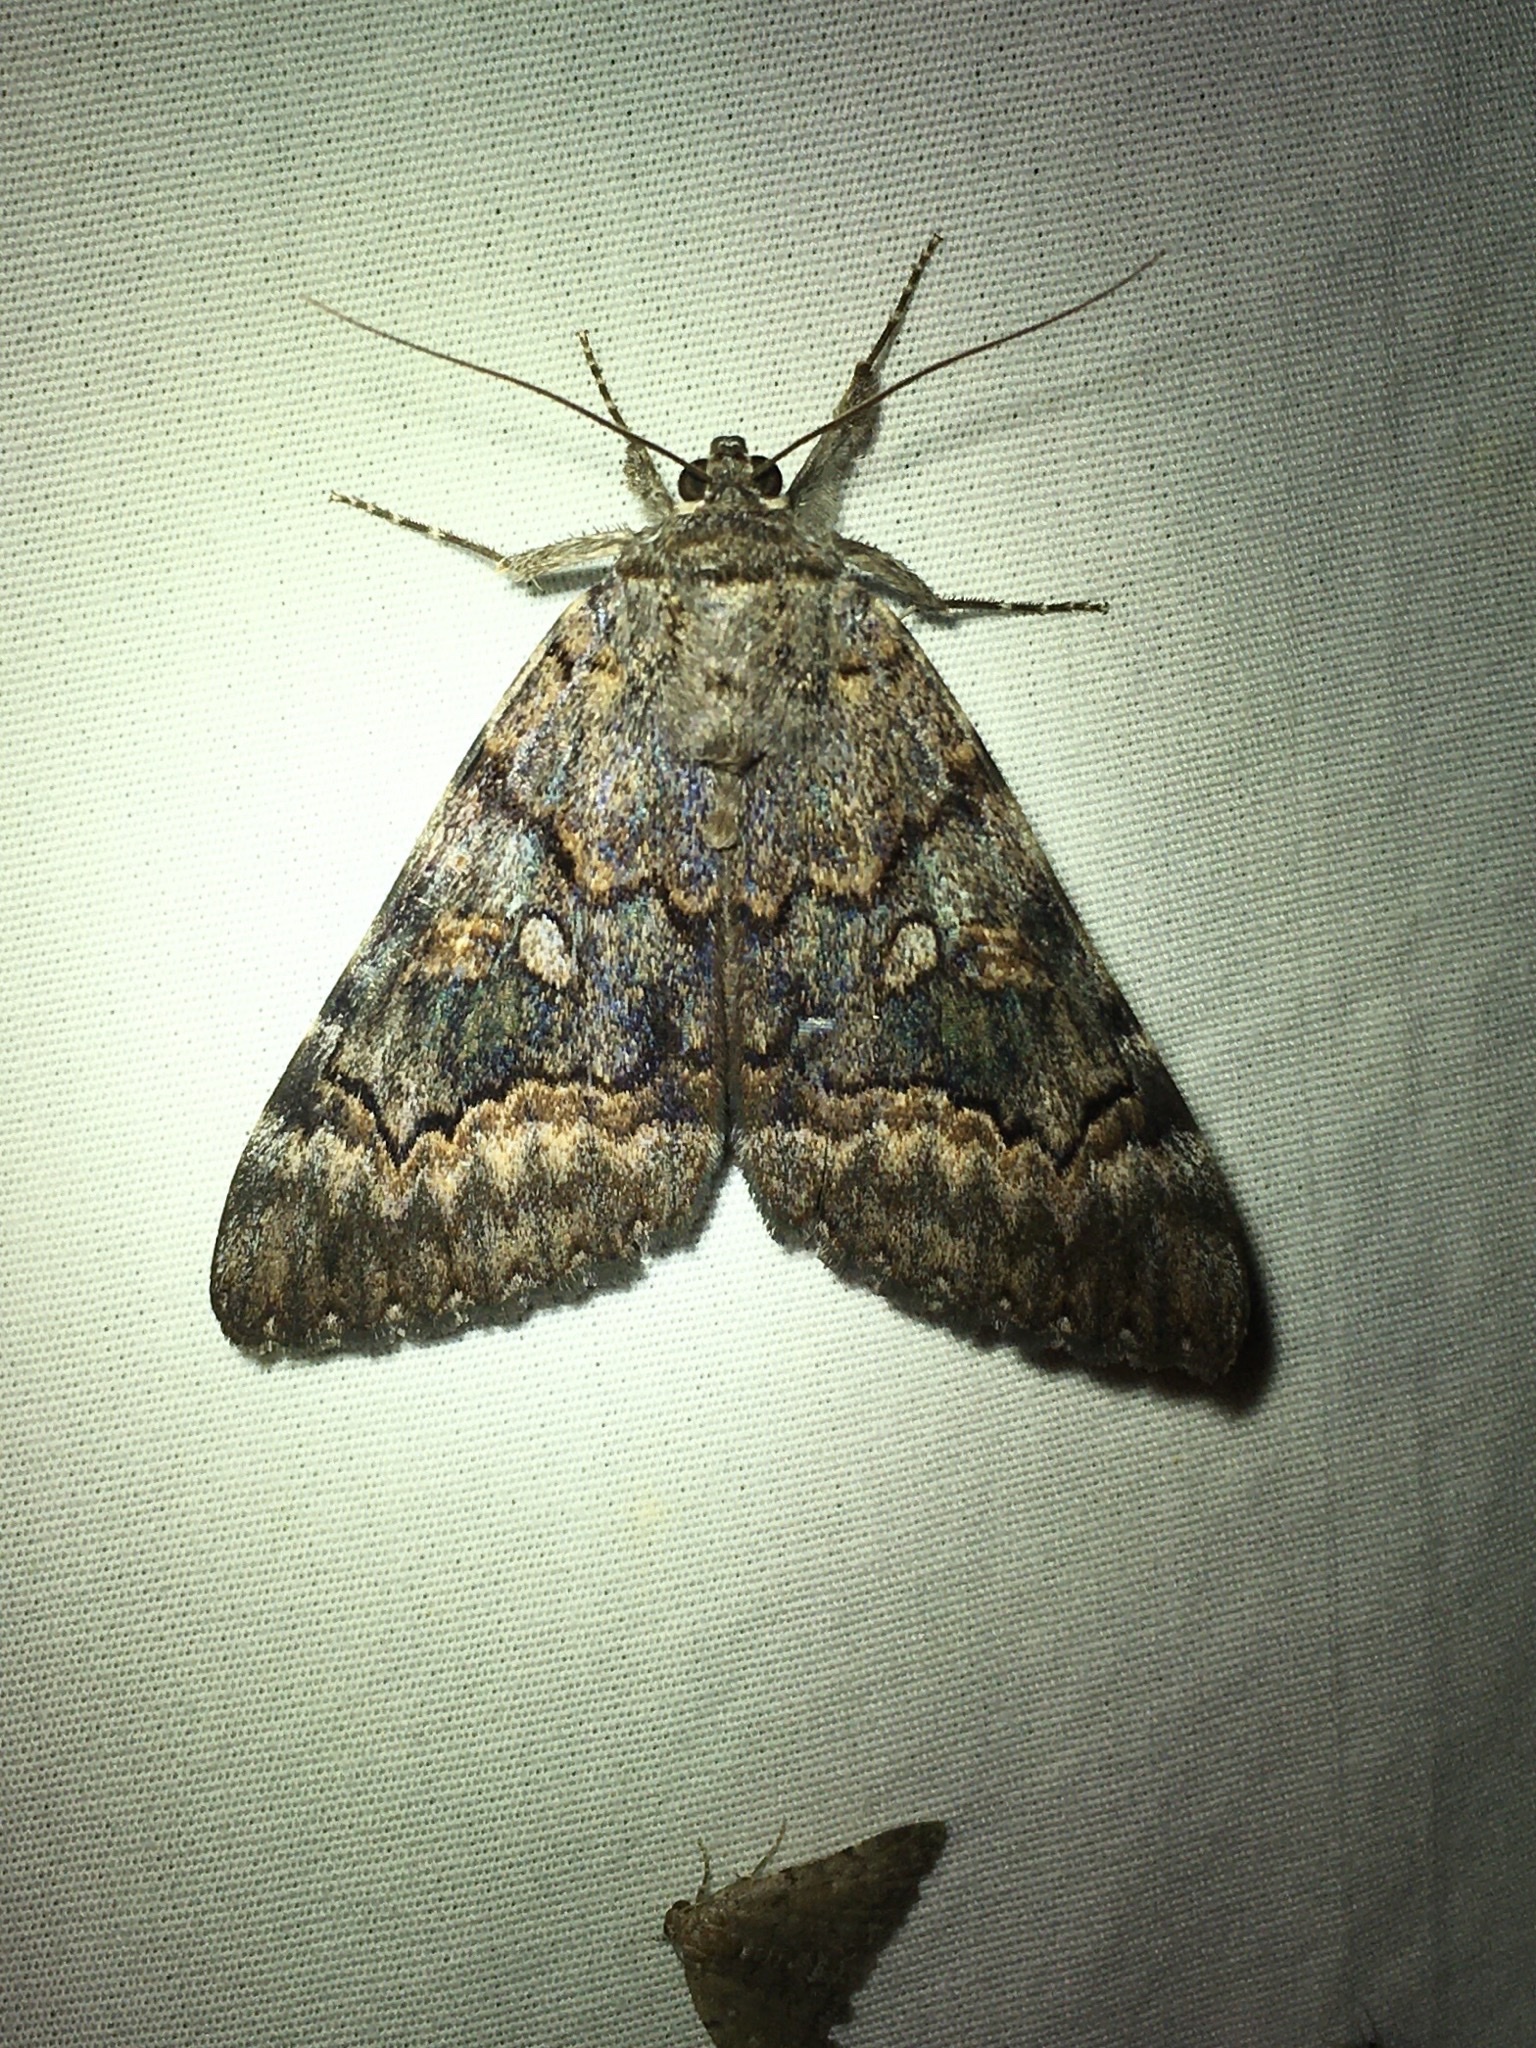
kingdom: Animalia
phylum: Arthropoda
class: Insecta
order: Lepidoptera
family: Erebidae
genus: Catocala
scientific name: Catocala epione
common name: Epione underwing
